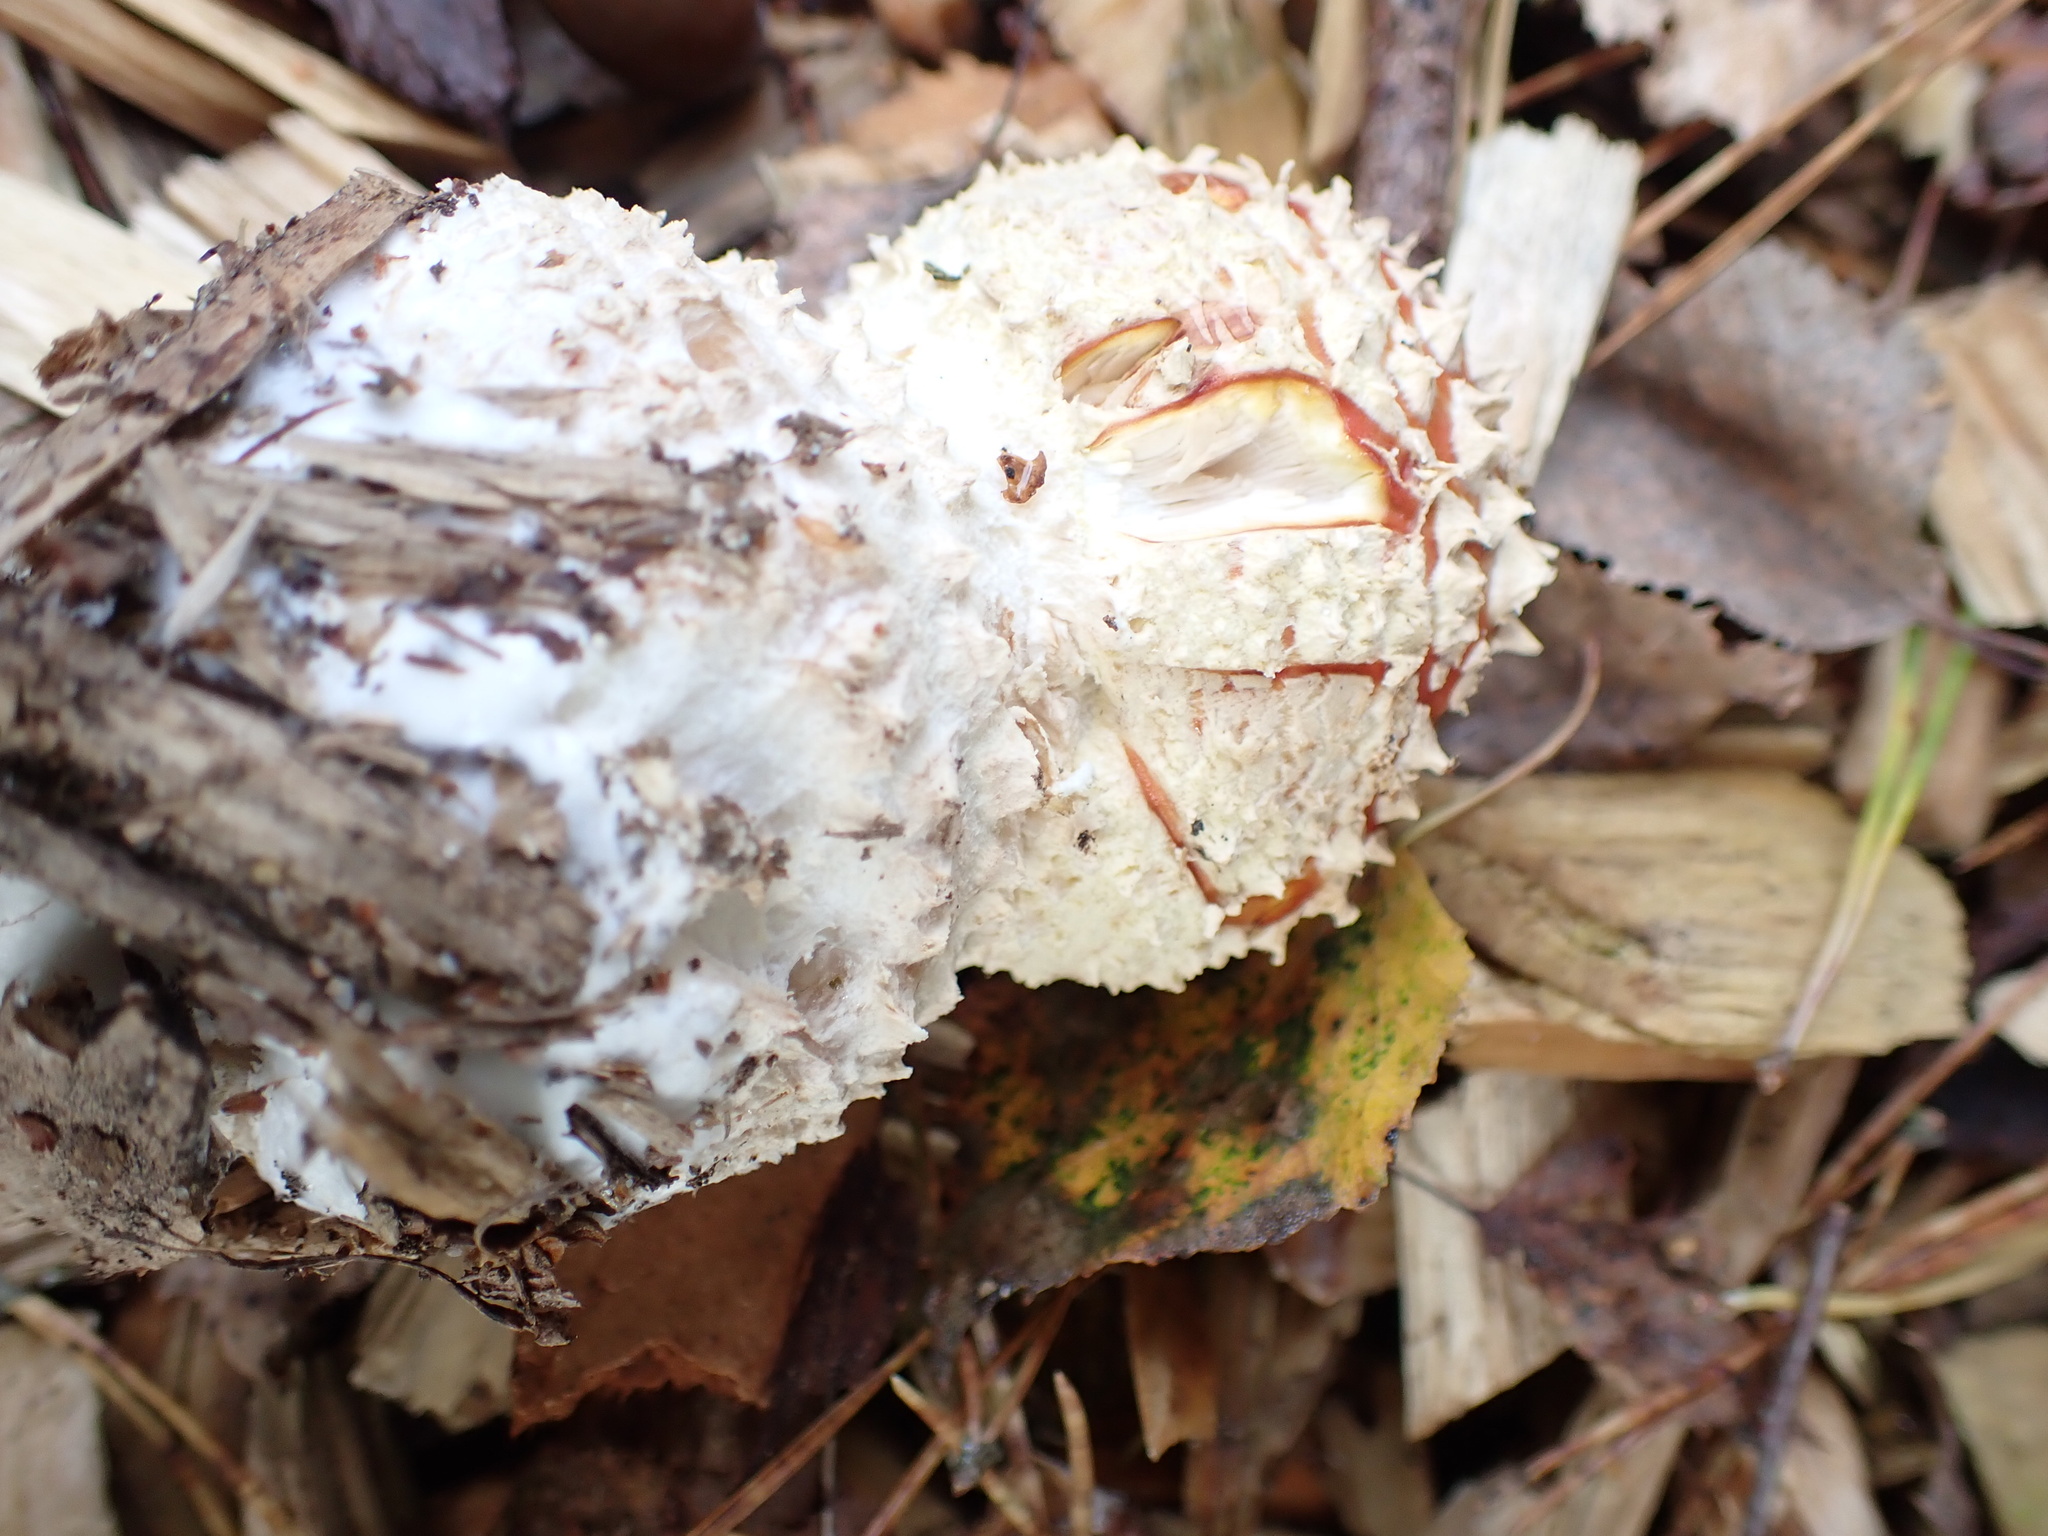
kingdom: Fungi
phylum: Basidiomycota
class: Agaricomycetes
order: Agaricales
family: Amanitaceae
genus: Amanita
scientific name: Amanita muscaria
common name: Fly agaric
